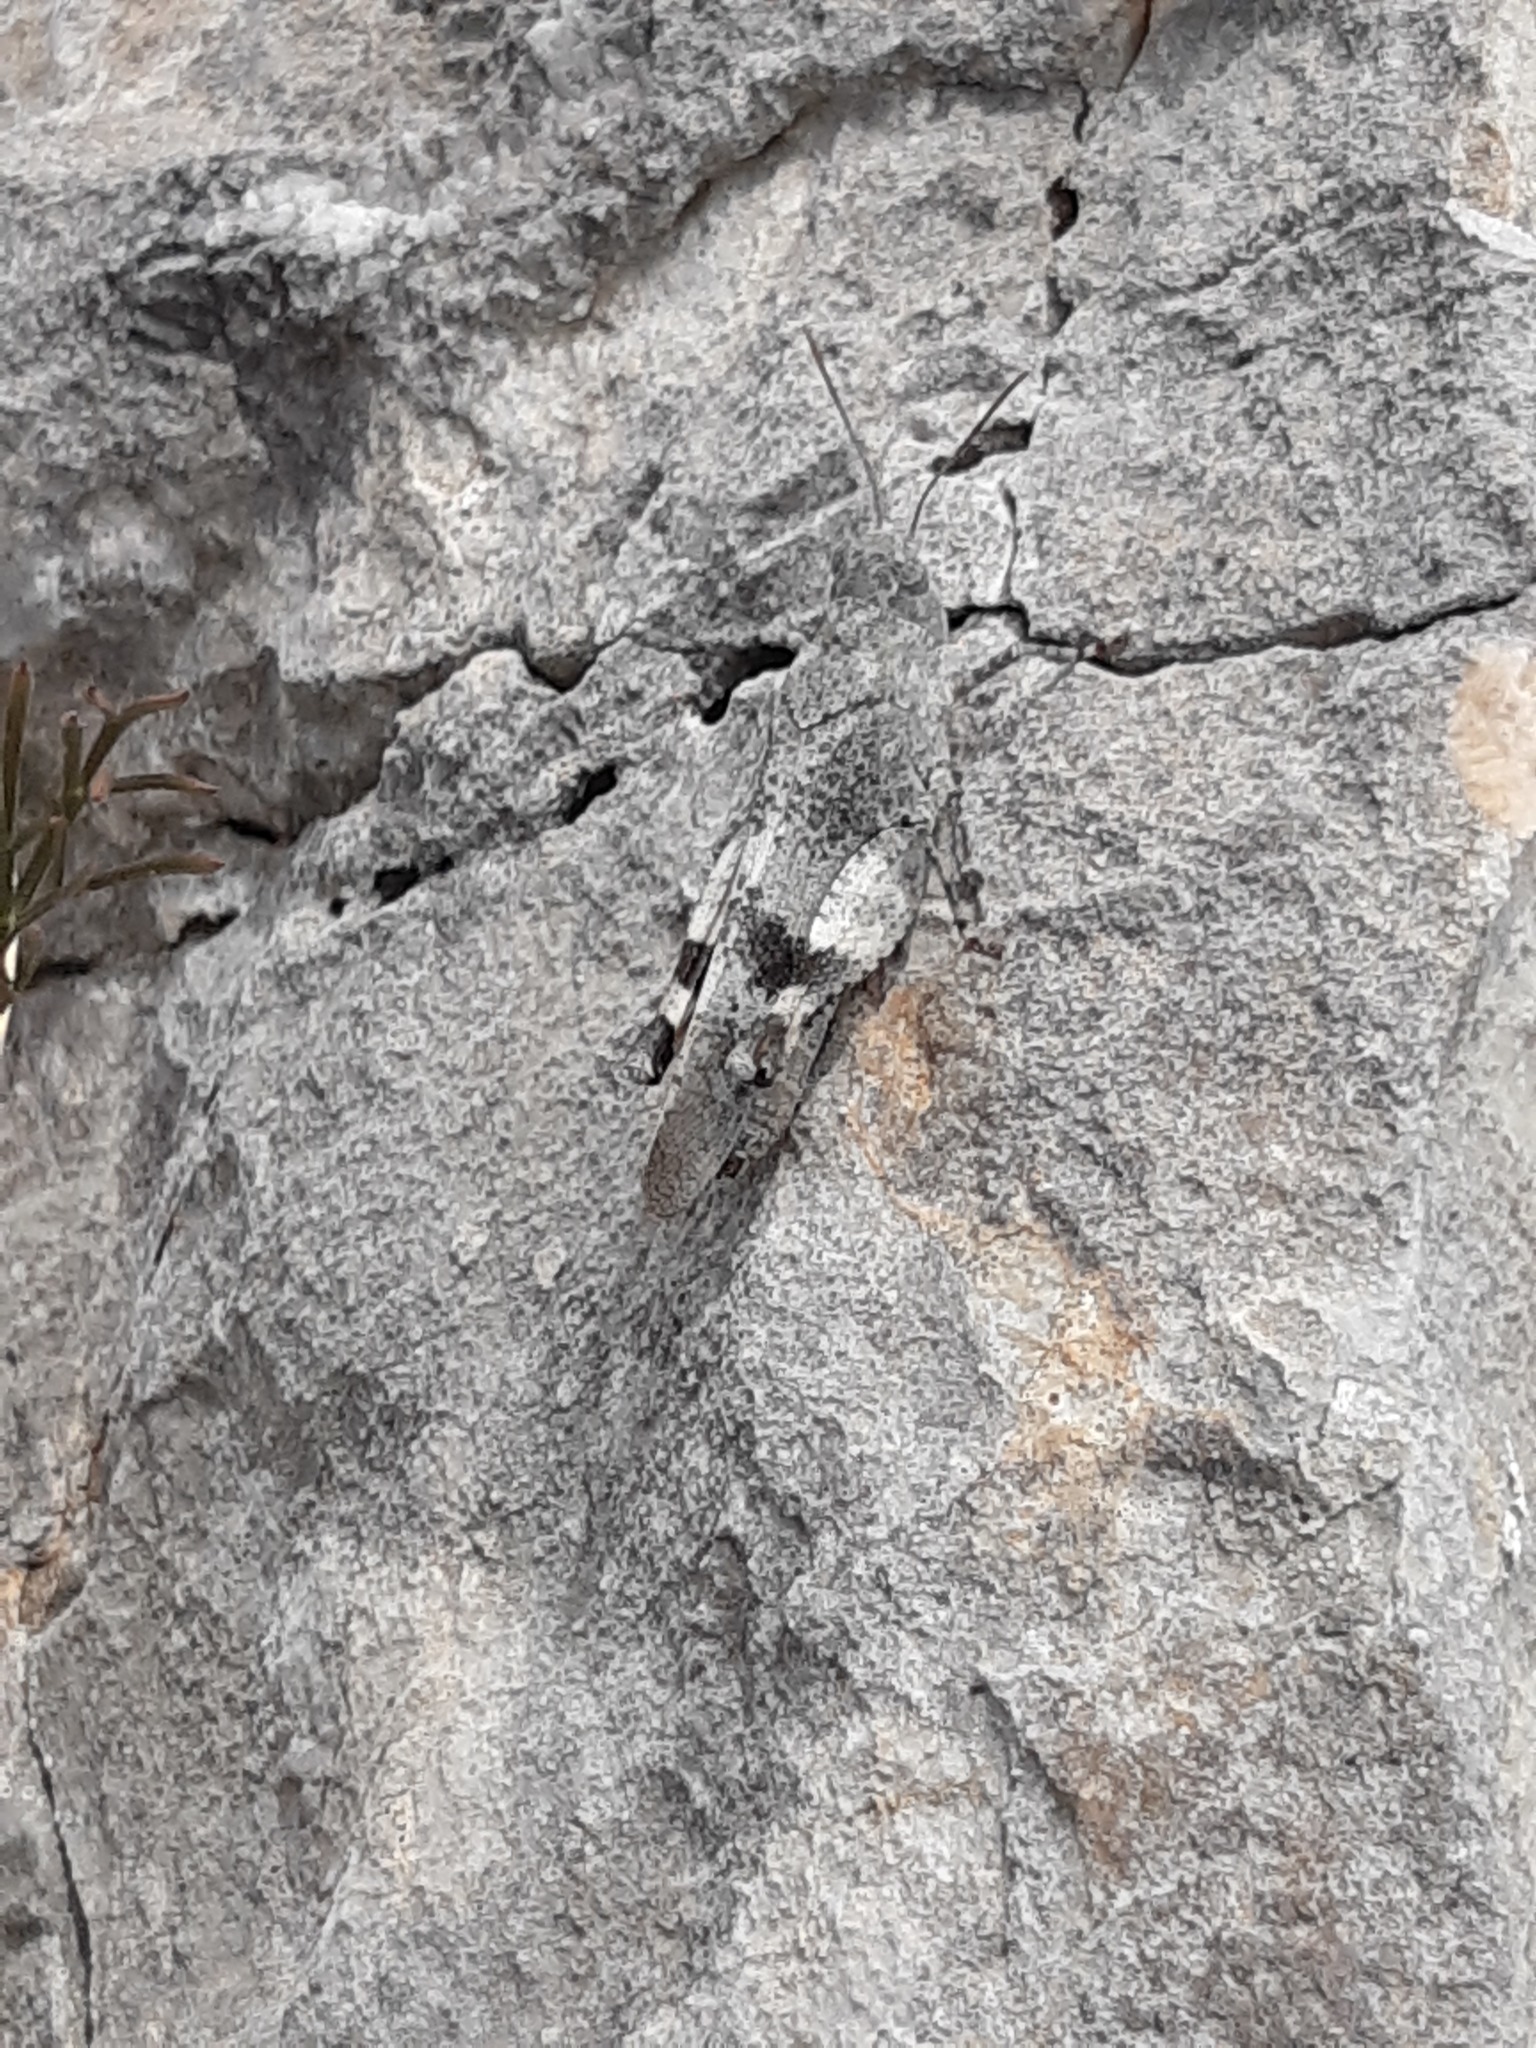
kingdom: Animalia
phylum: Arthropoda
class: Insecta
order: Orthoptera
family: Acrididae
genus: Oedipoda
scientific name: Oedipoda germanica
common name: Red band-winged grasshopper
